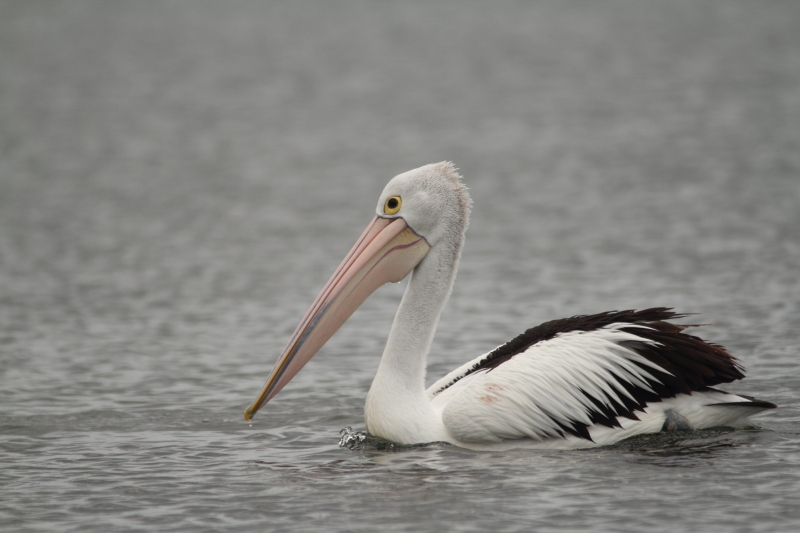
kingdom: Animalia
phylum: Chordata
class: Aves
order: Pelecaniformes
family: Pelecanidae
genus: Pelecanus
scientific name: Pelecanus conspicillatus
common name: Australian pelican
